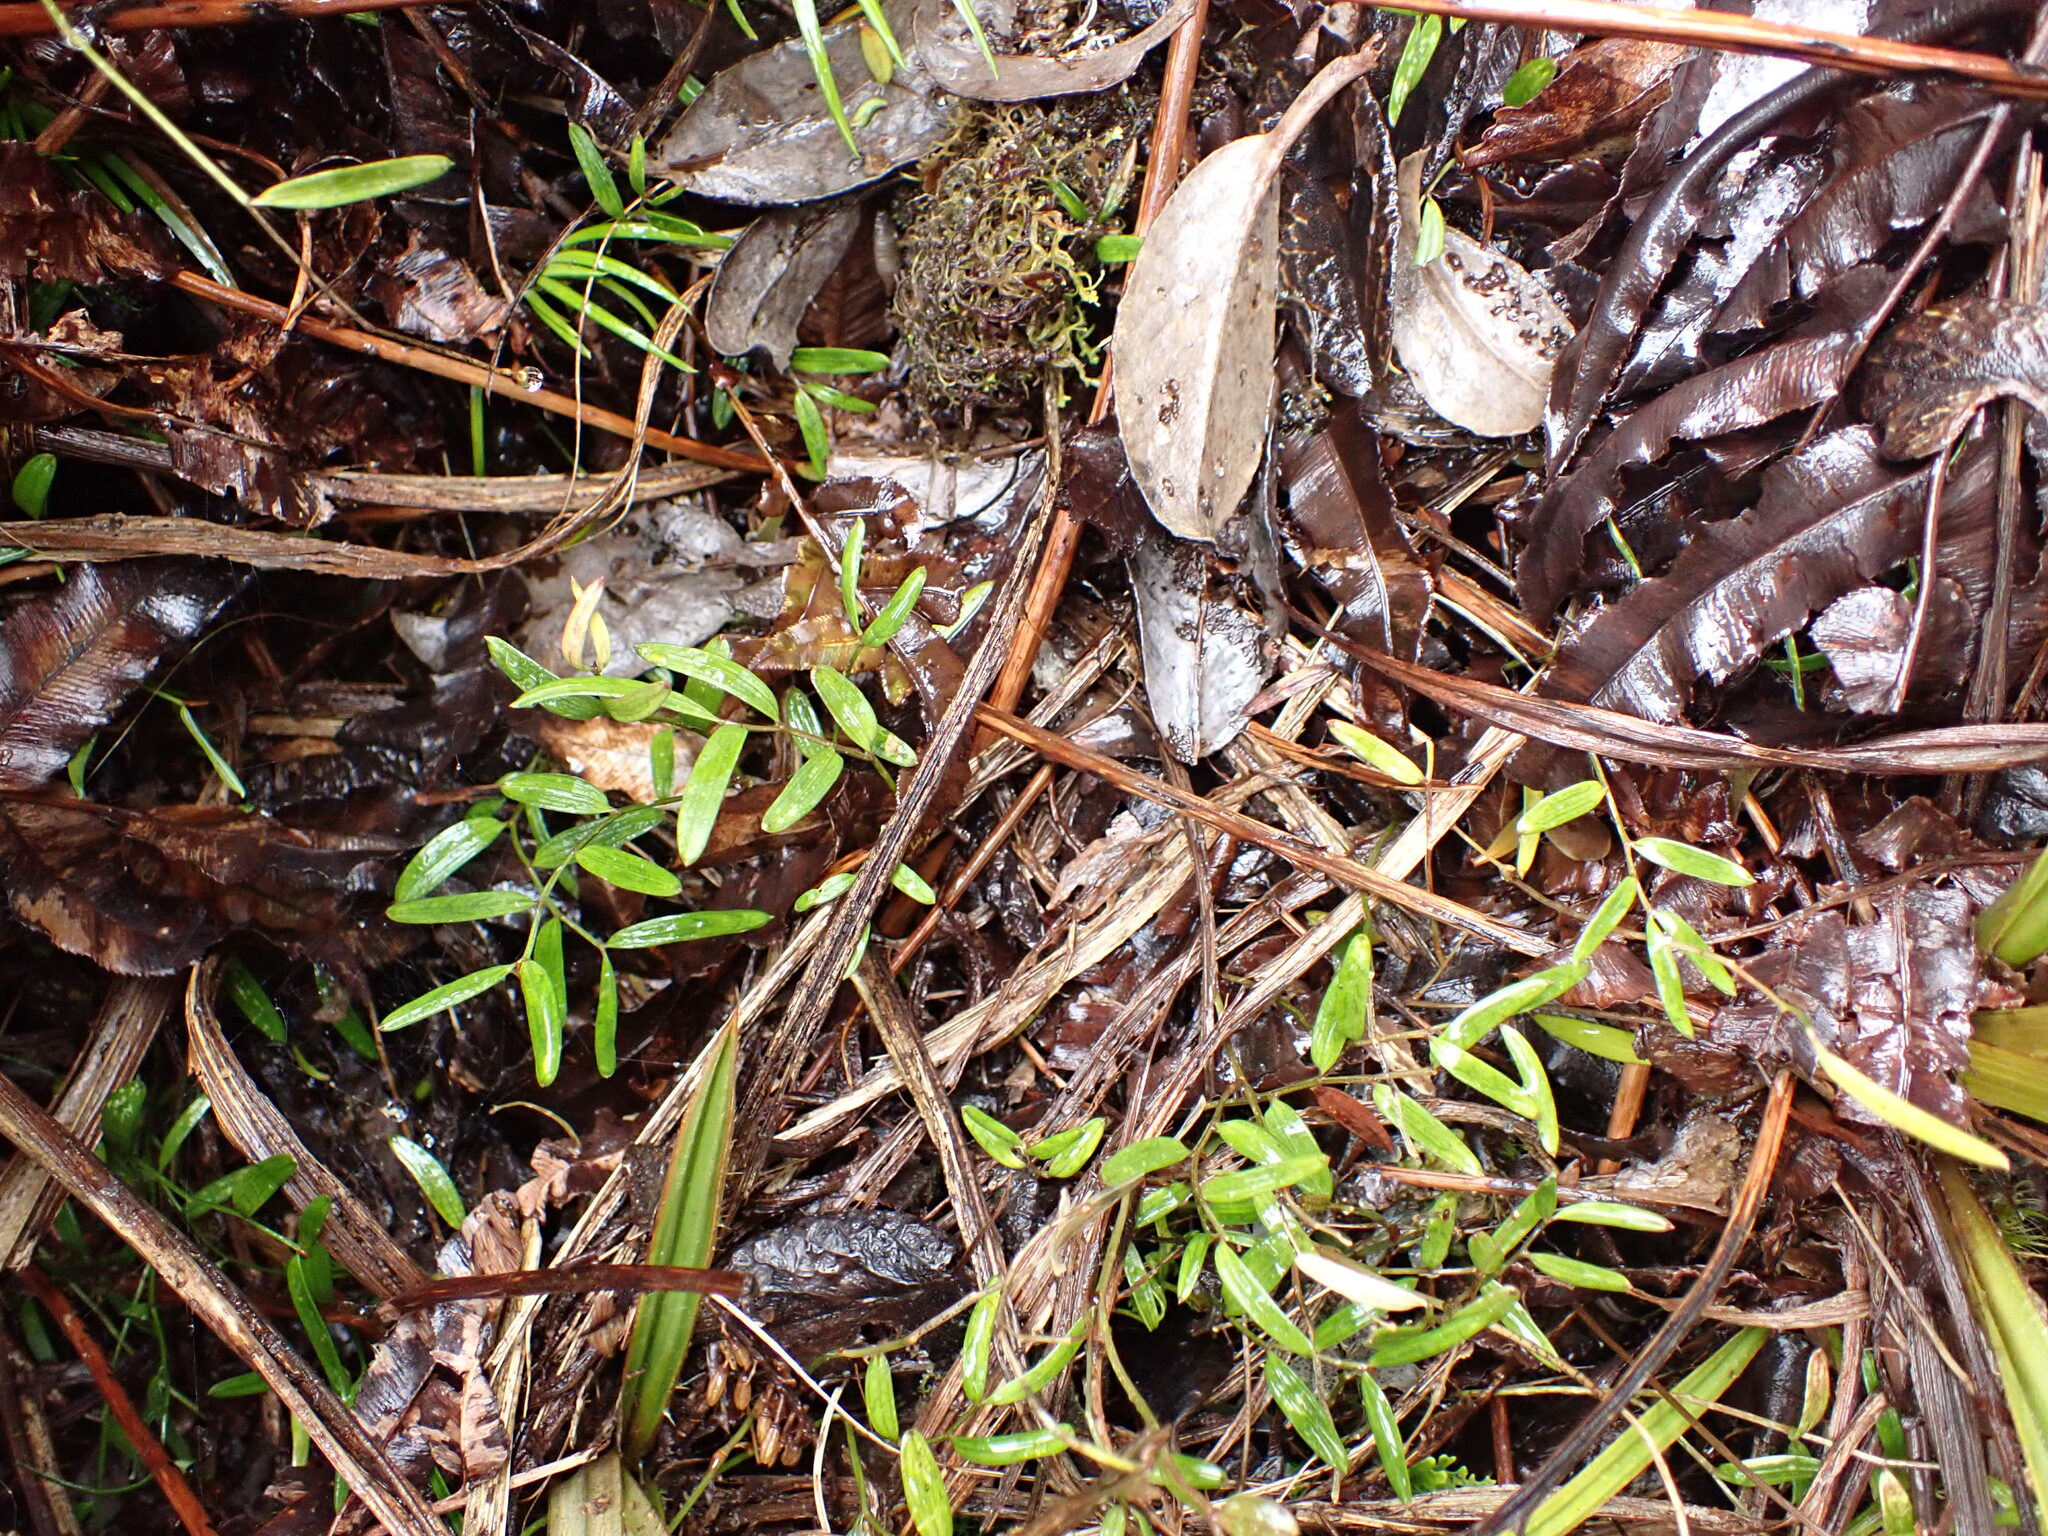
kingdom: Plantae
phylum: Tracheophyta
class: Liliopsida
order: Liliales
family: Alstroemeriaceae
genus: Luzuriaga
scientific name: Luzuriaga parviflora
